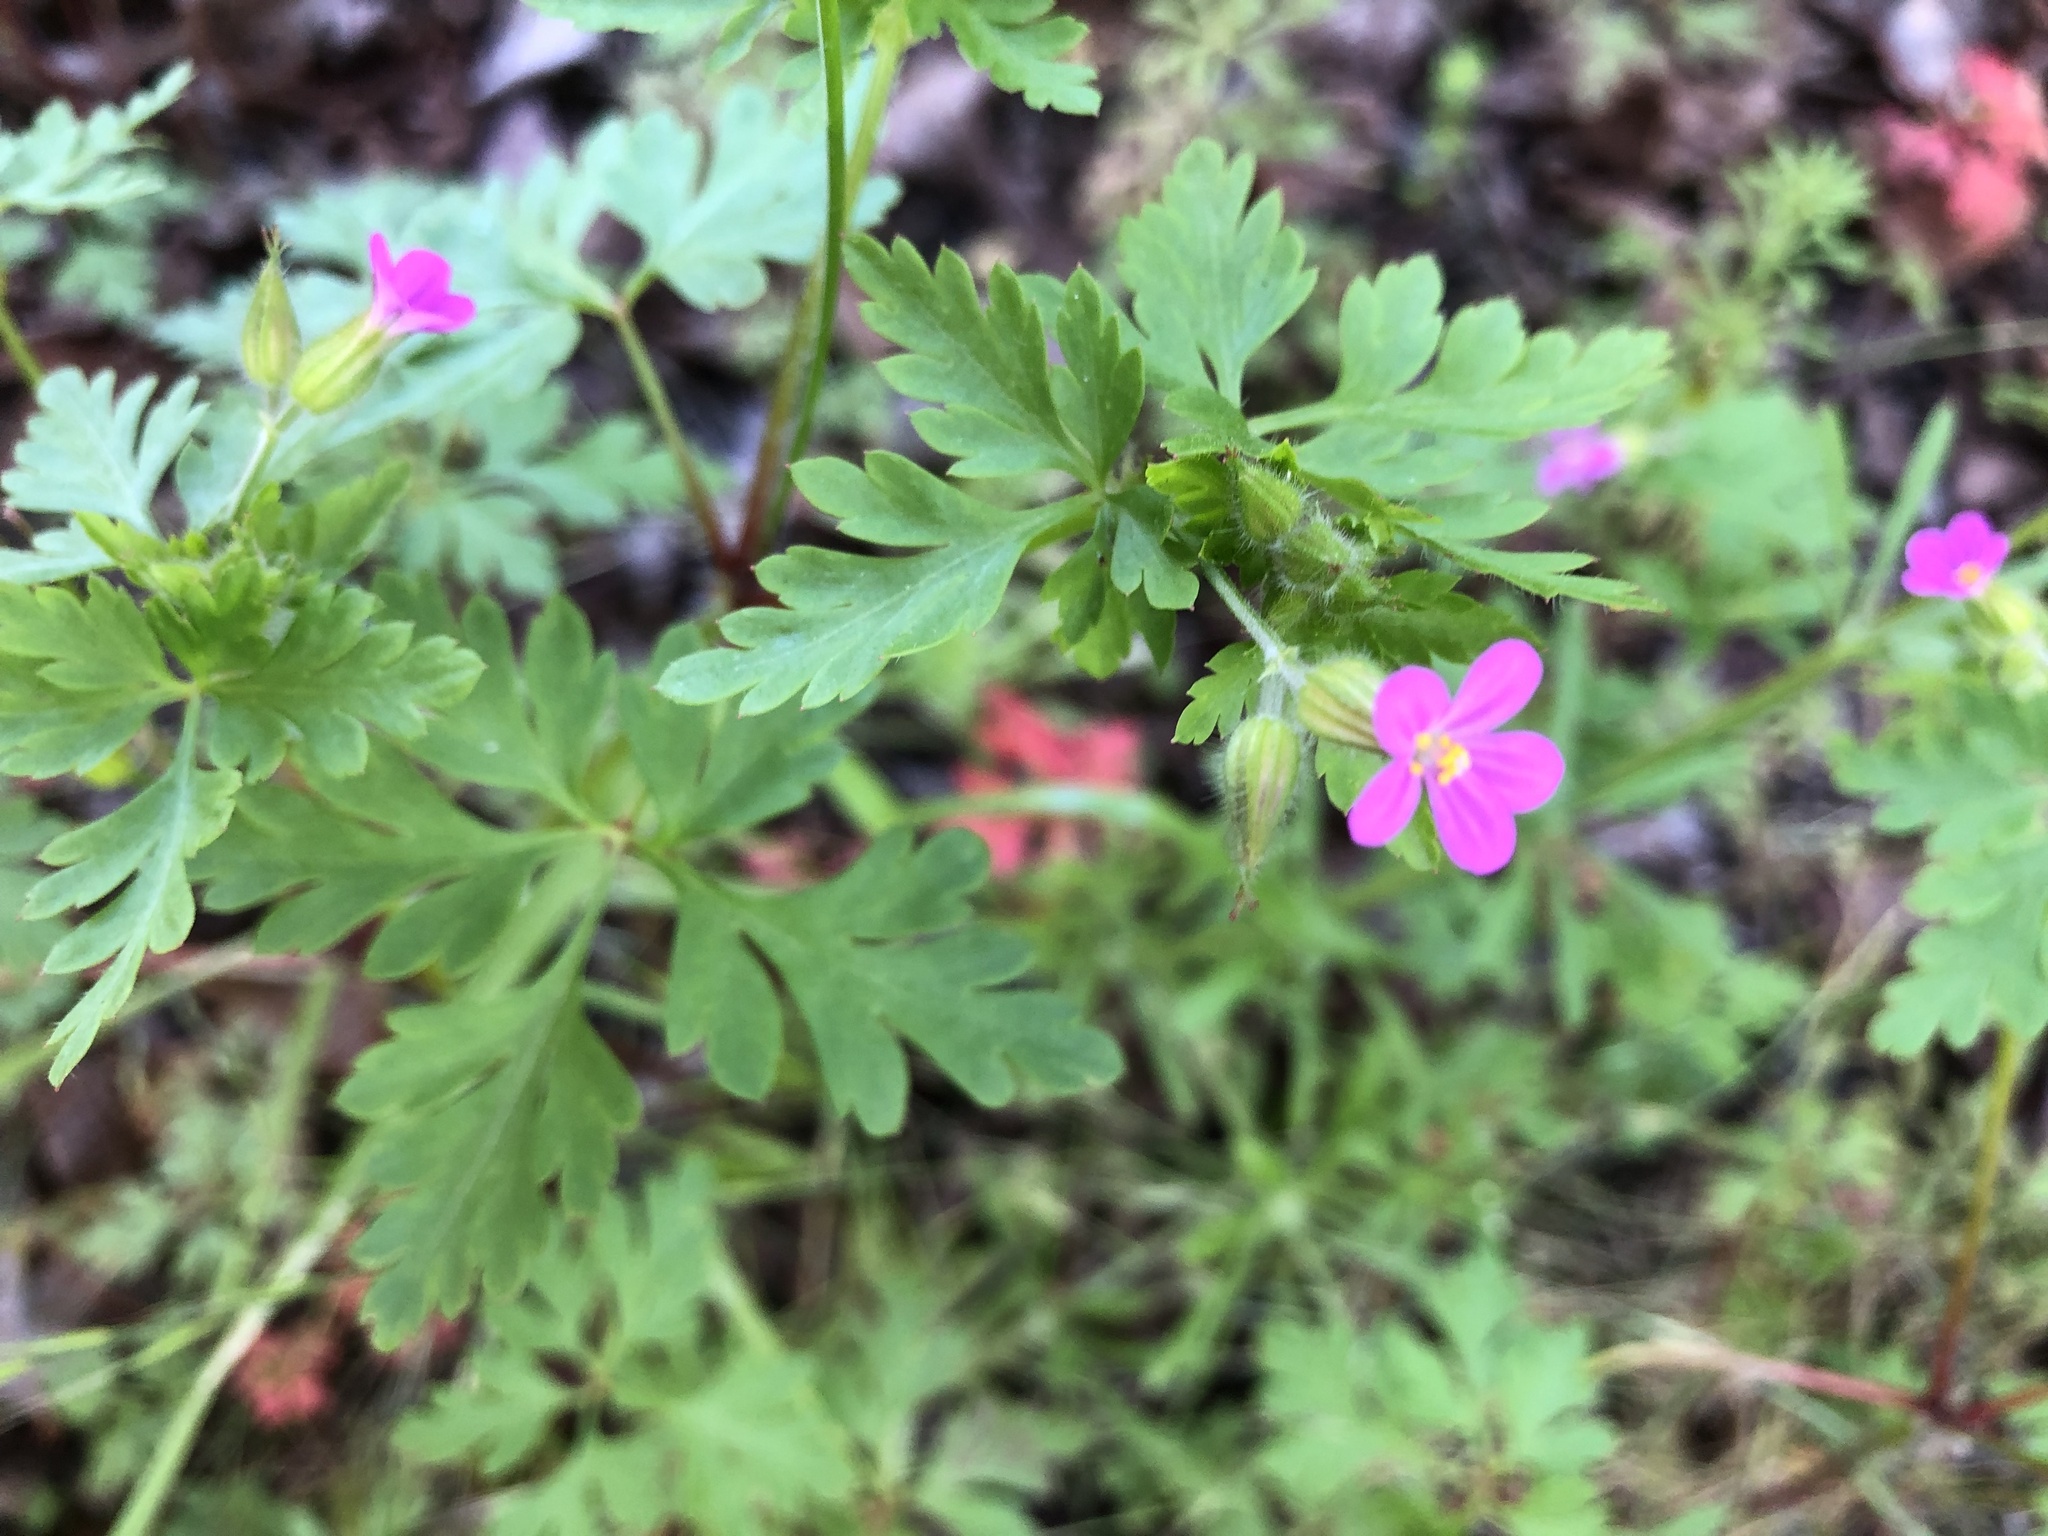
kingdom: Plantae
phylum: Tracheophyta
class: Magnoliopsida
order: Geraniales
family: Geraniaceae
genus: Geranium
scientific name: Geranium purpureum
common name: Little-robin
